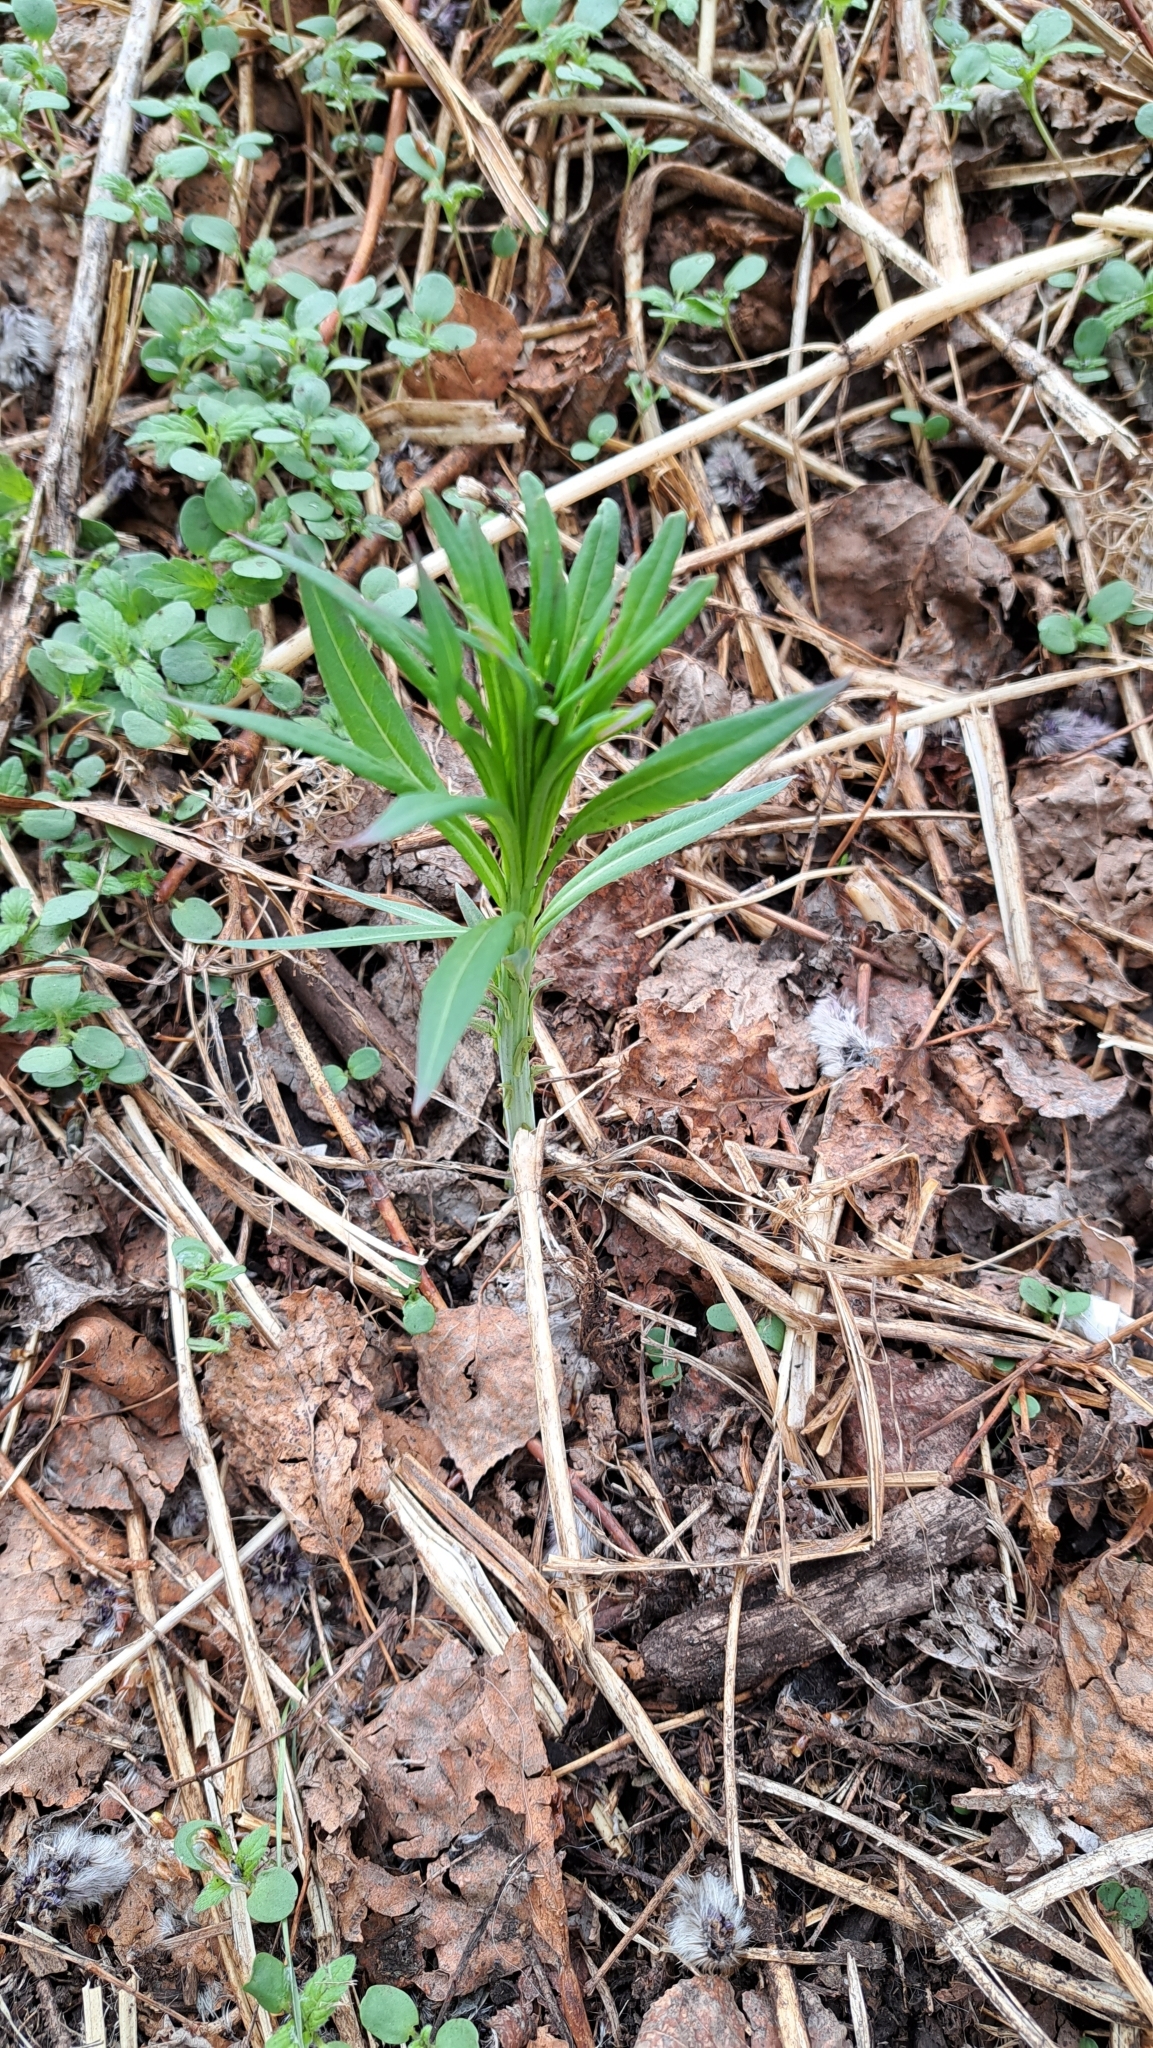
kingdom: Plantae
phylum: Tracheophyta
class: Magnoliopsida
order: Myrtales
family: Onagraceae
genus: Chamaenerion
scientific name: Chamaenerion angustifolium
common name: Fireweed
